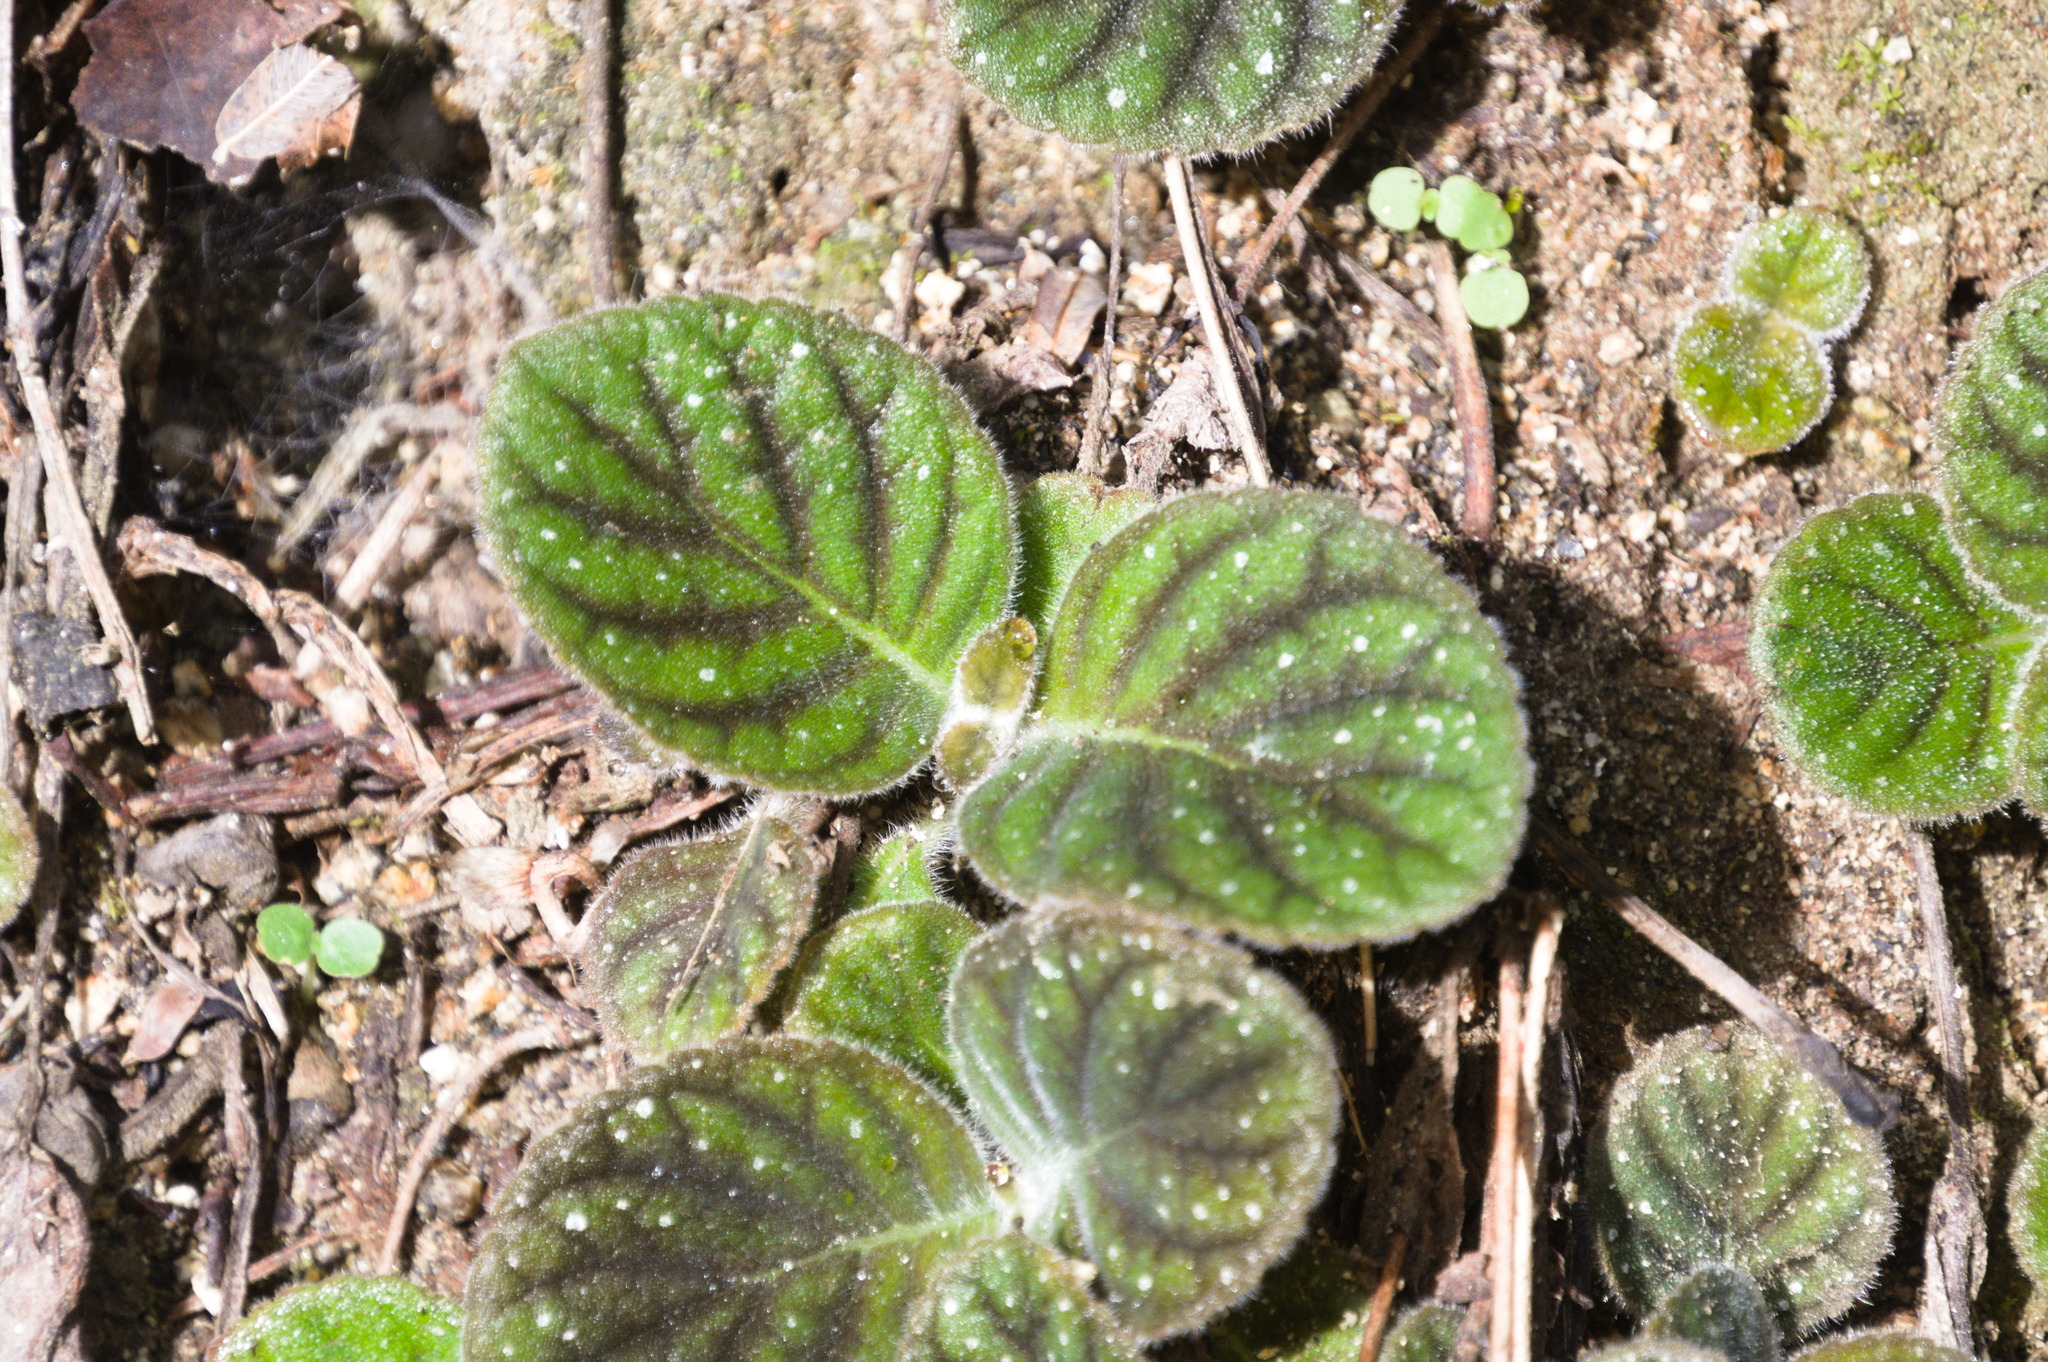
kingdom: Plantae
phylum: Tracheophyta
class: Magnoliopsida
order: Lamiales
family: Gesneriaceae
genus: Gloxinia
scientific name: Gloxinia erinoides
